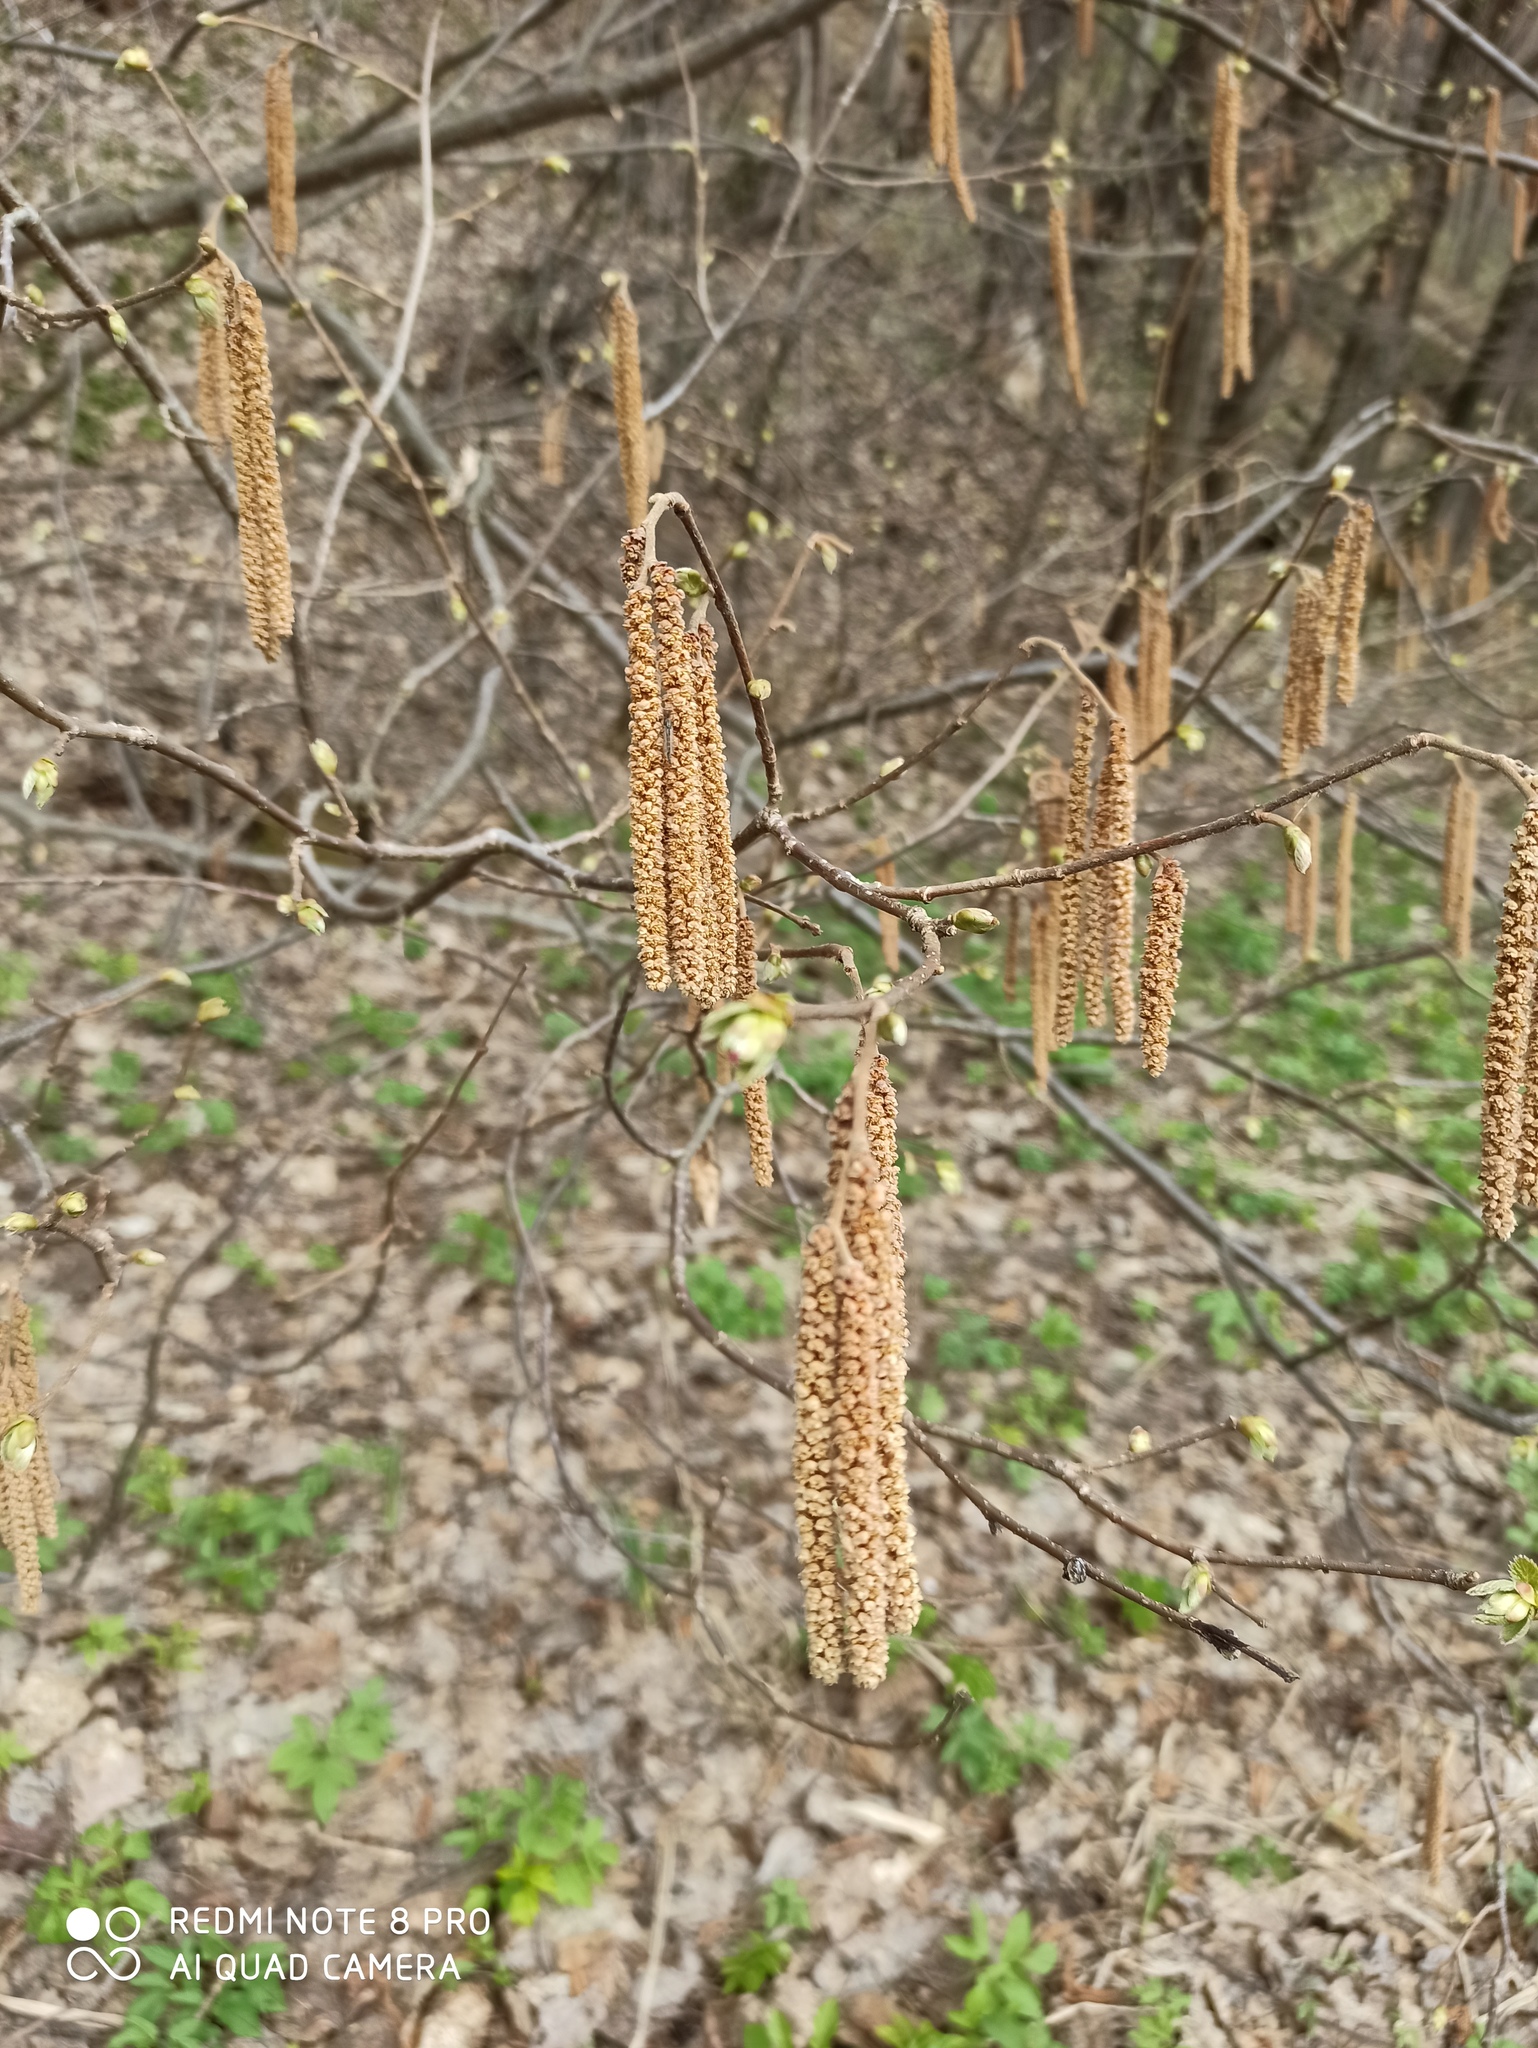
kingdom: Plantae
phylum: Tracheophyta
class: Magnoliopsida
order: Fagales
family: Betulaceae
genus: Corylus
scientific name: Corylus avellana
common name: European hazel
